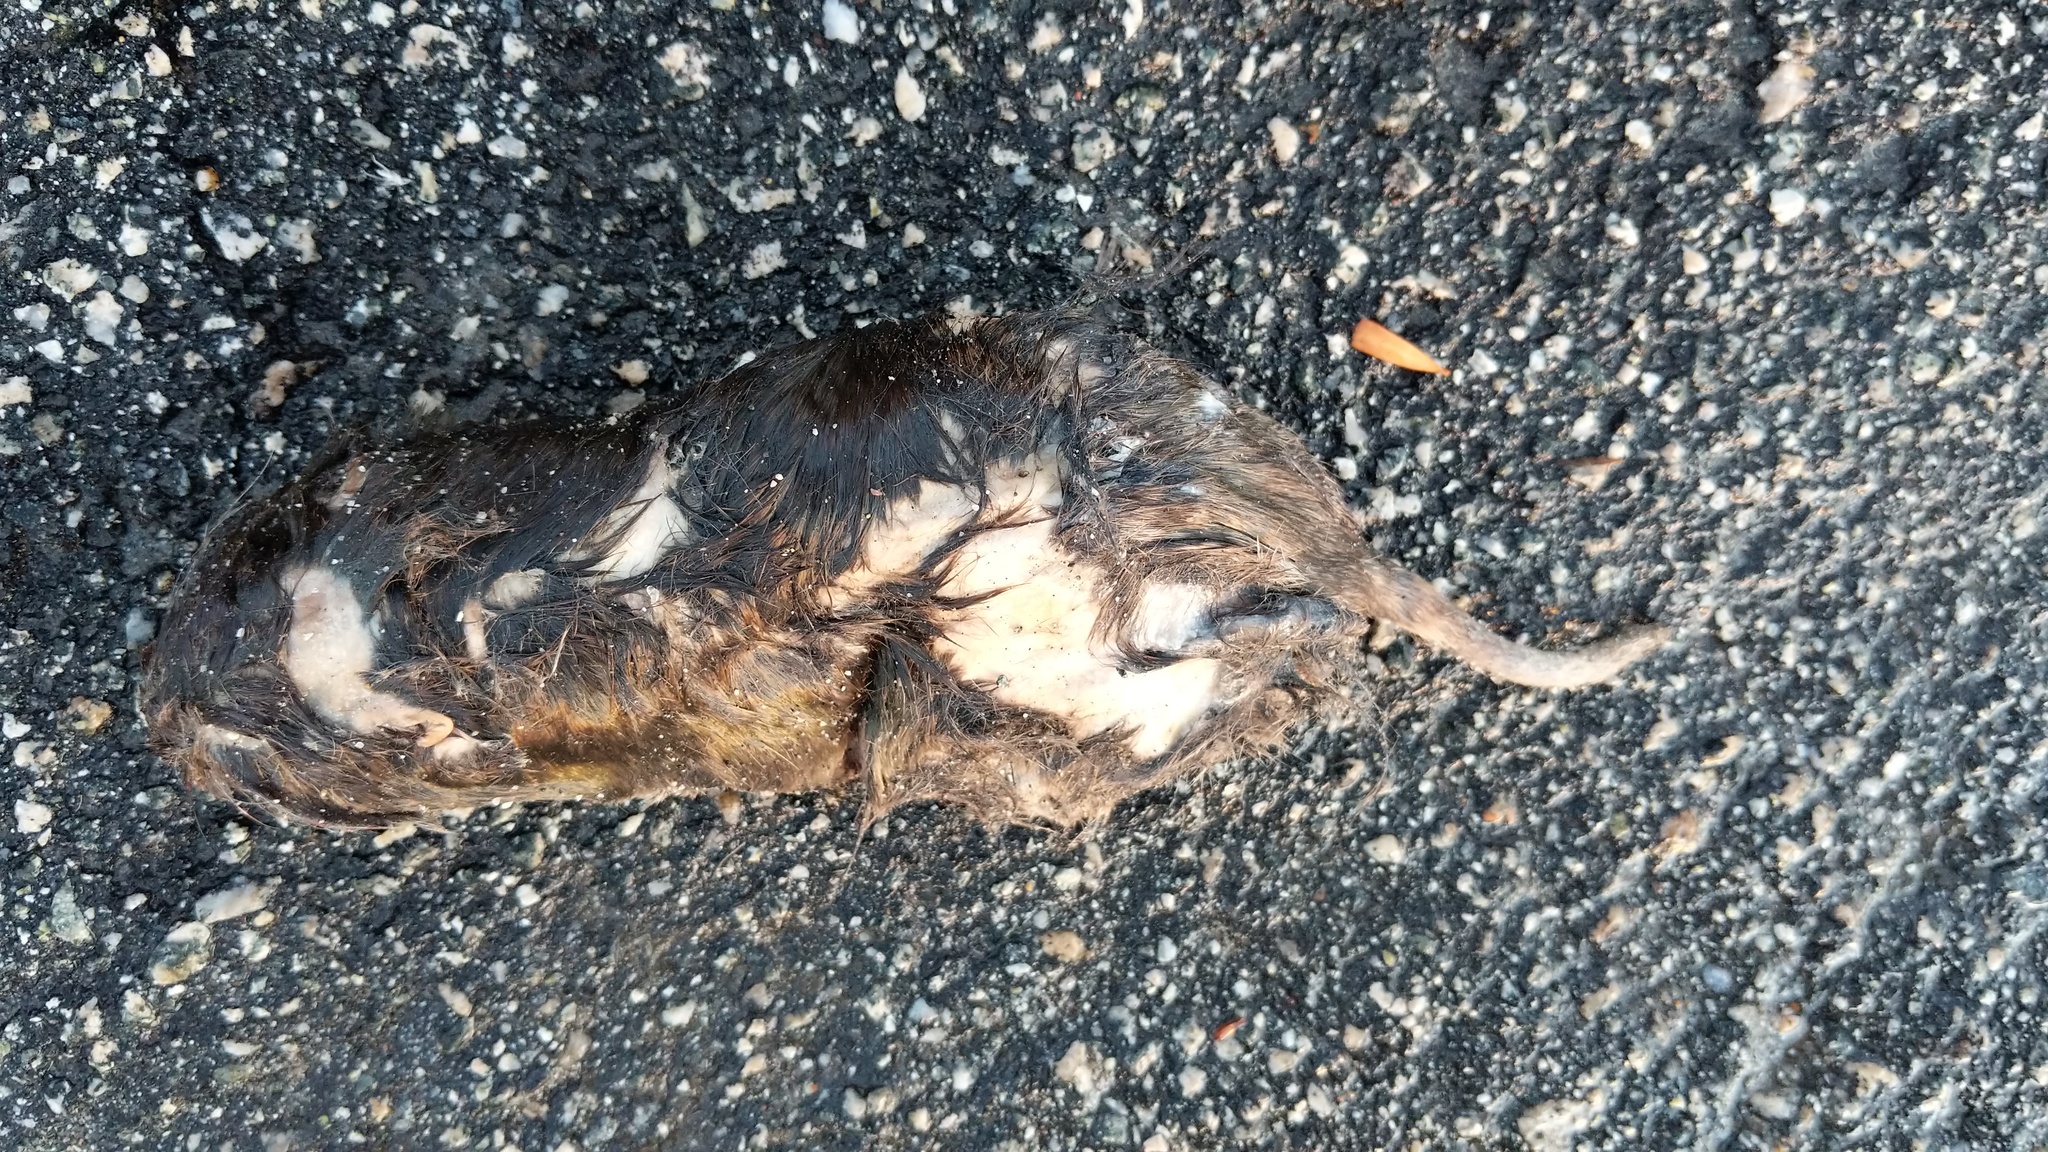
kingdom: Animalia
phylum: Chordata
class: Mammalia
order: Rodentia
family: Geomyidae
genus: Thomomys
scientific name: Thomomys bottae
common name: Botta's pocket gopher
